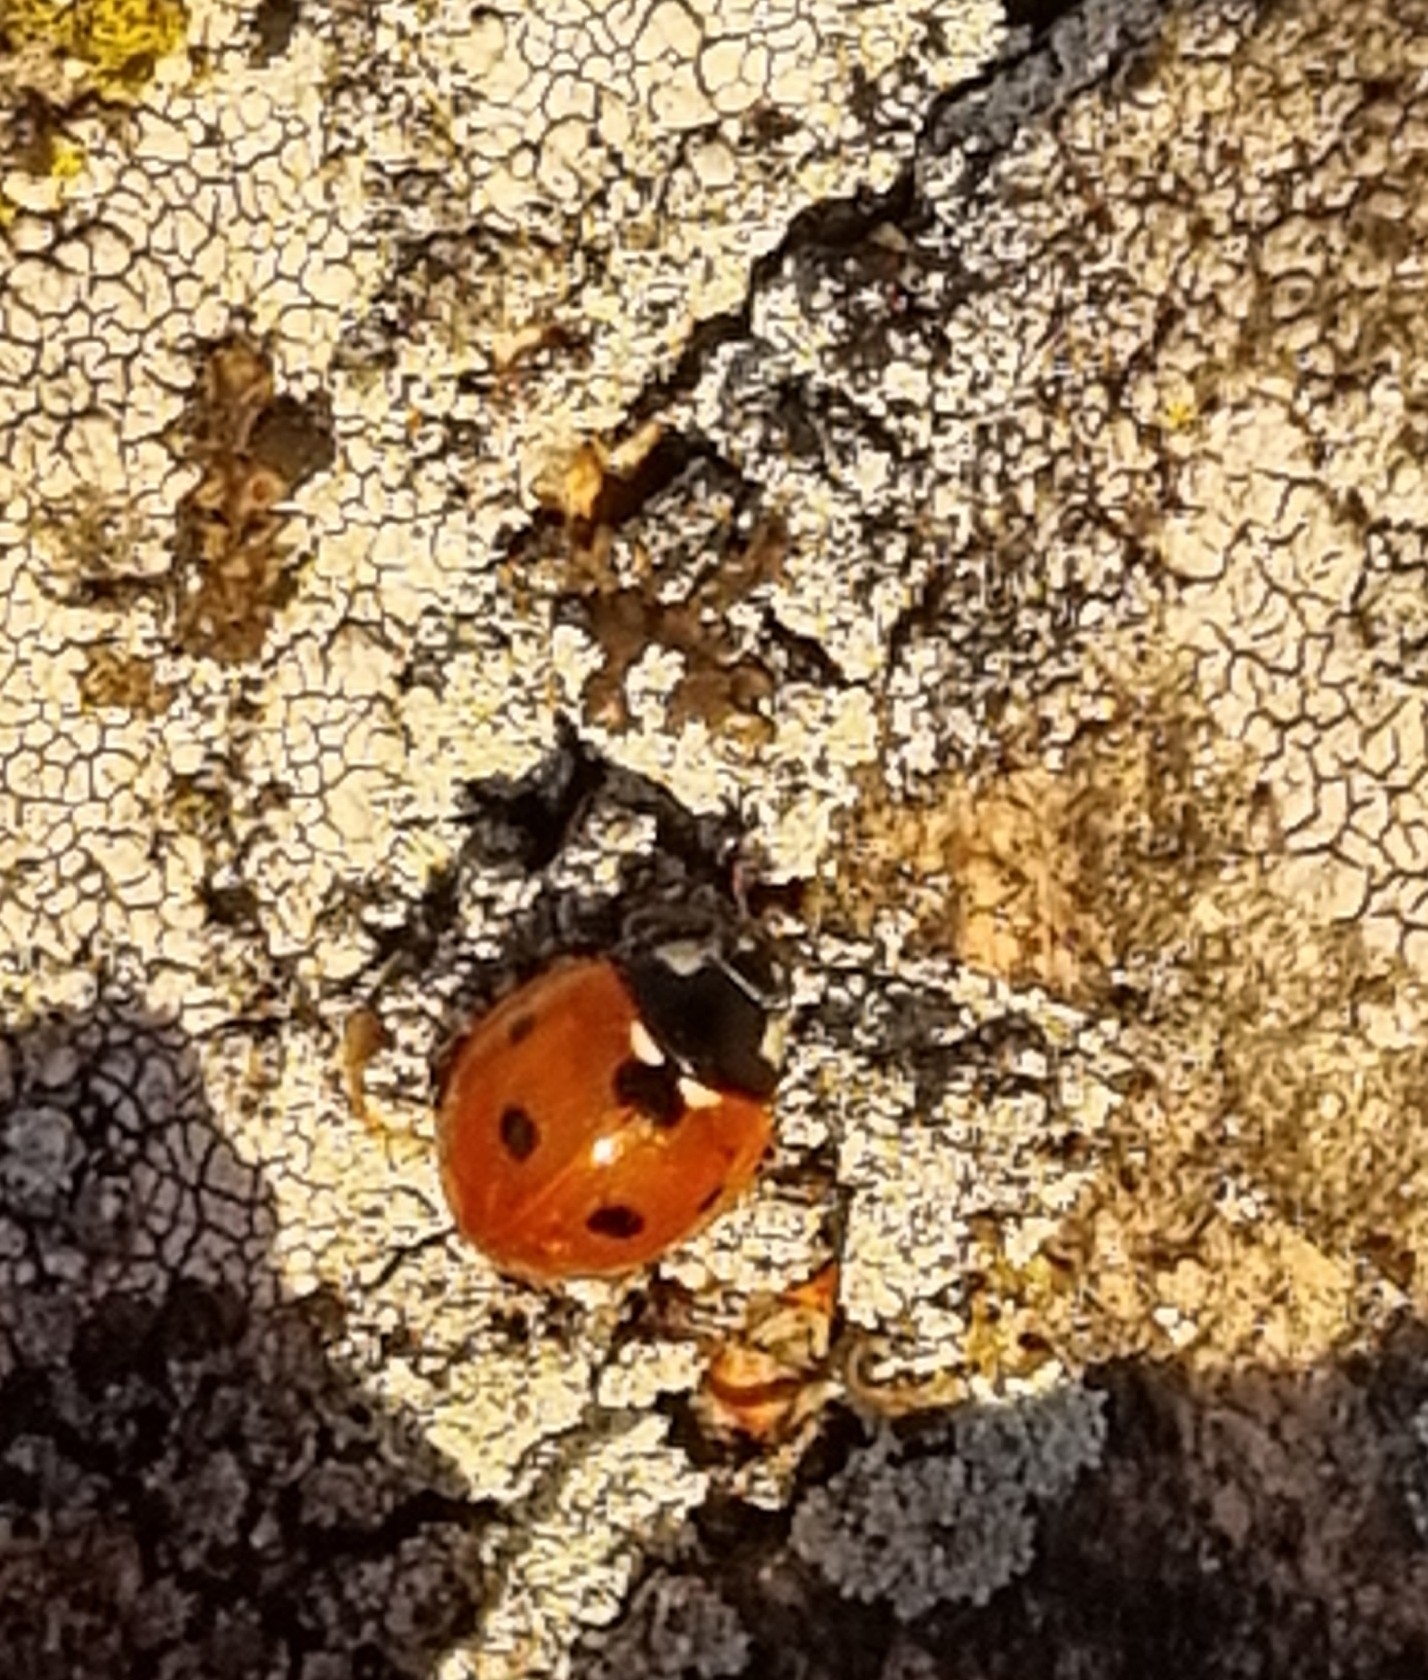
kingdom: Animalia
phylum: Arthropoda
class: Insecta
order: Coleoptera
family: Coccinellidae
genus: Coccinella
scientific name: Coccinella septempunctata
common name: Sevenspotted lady beetle
